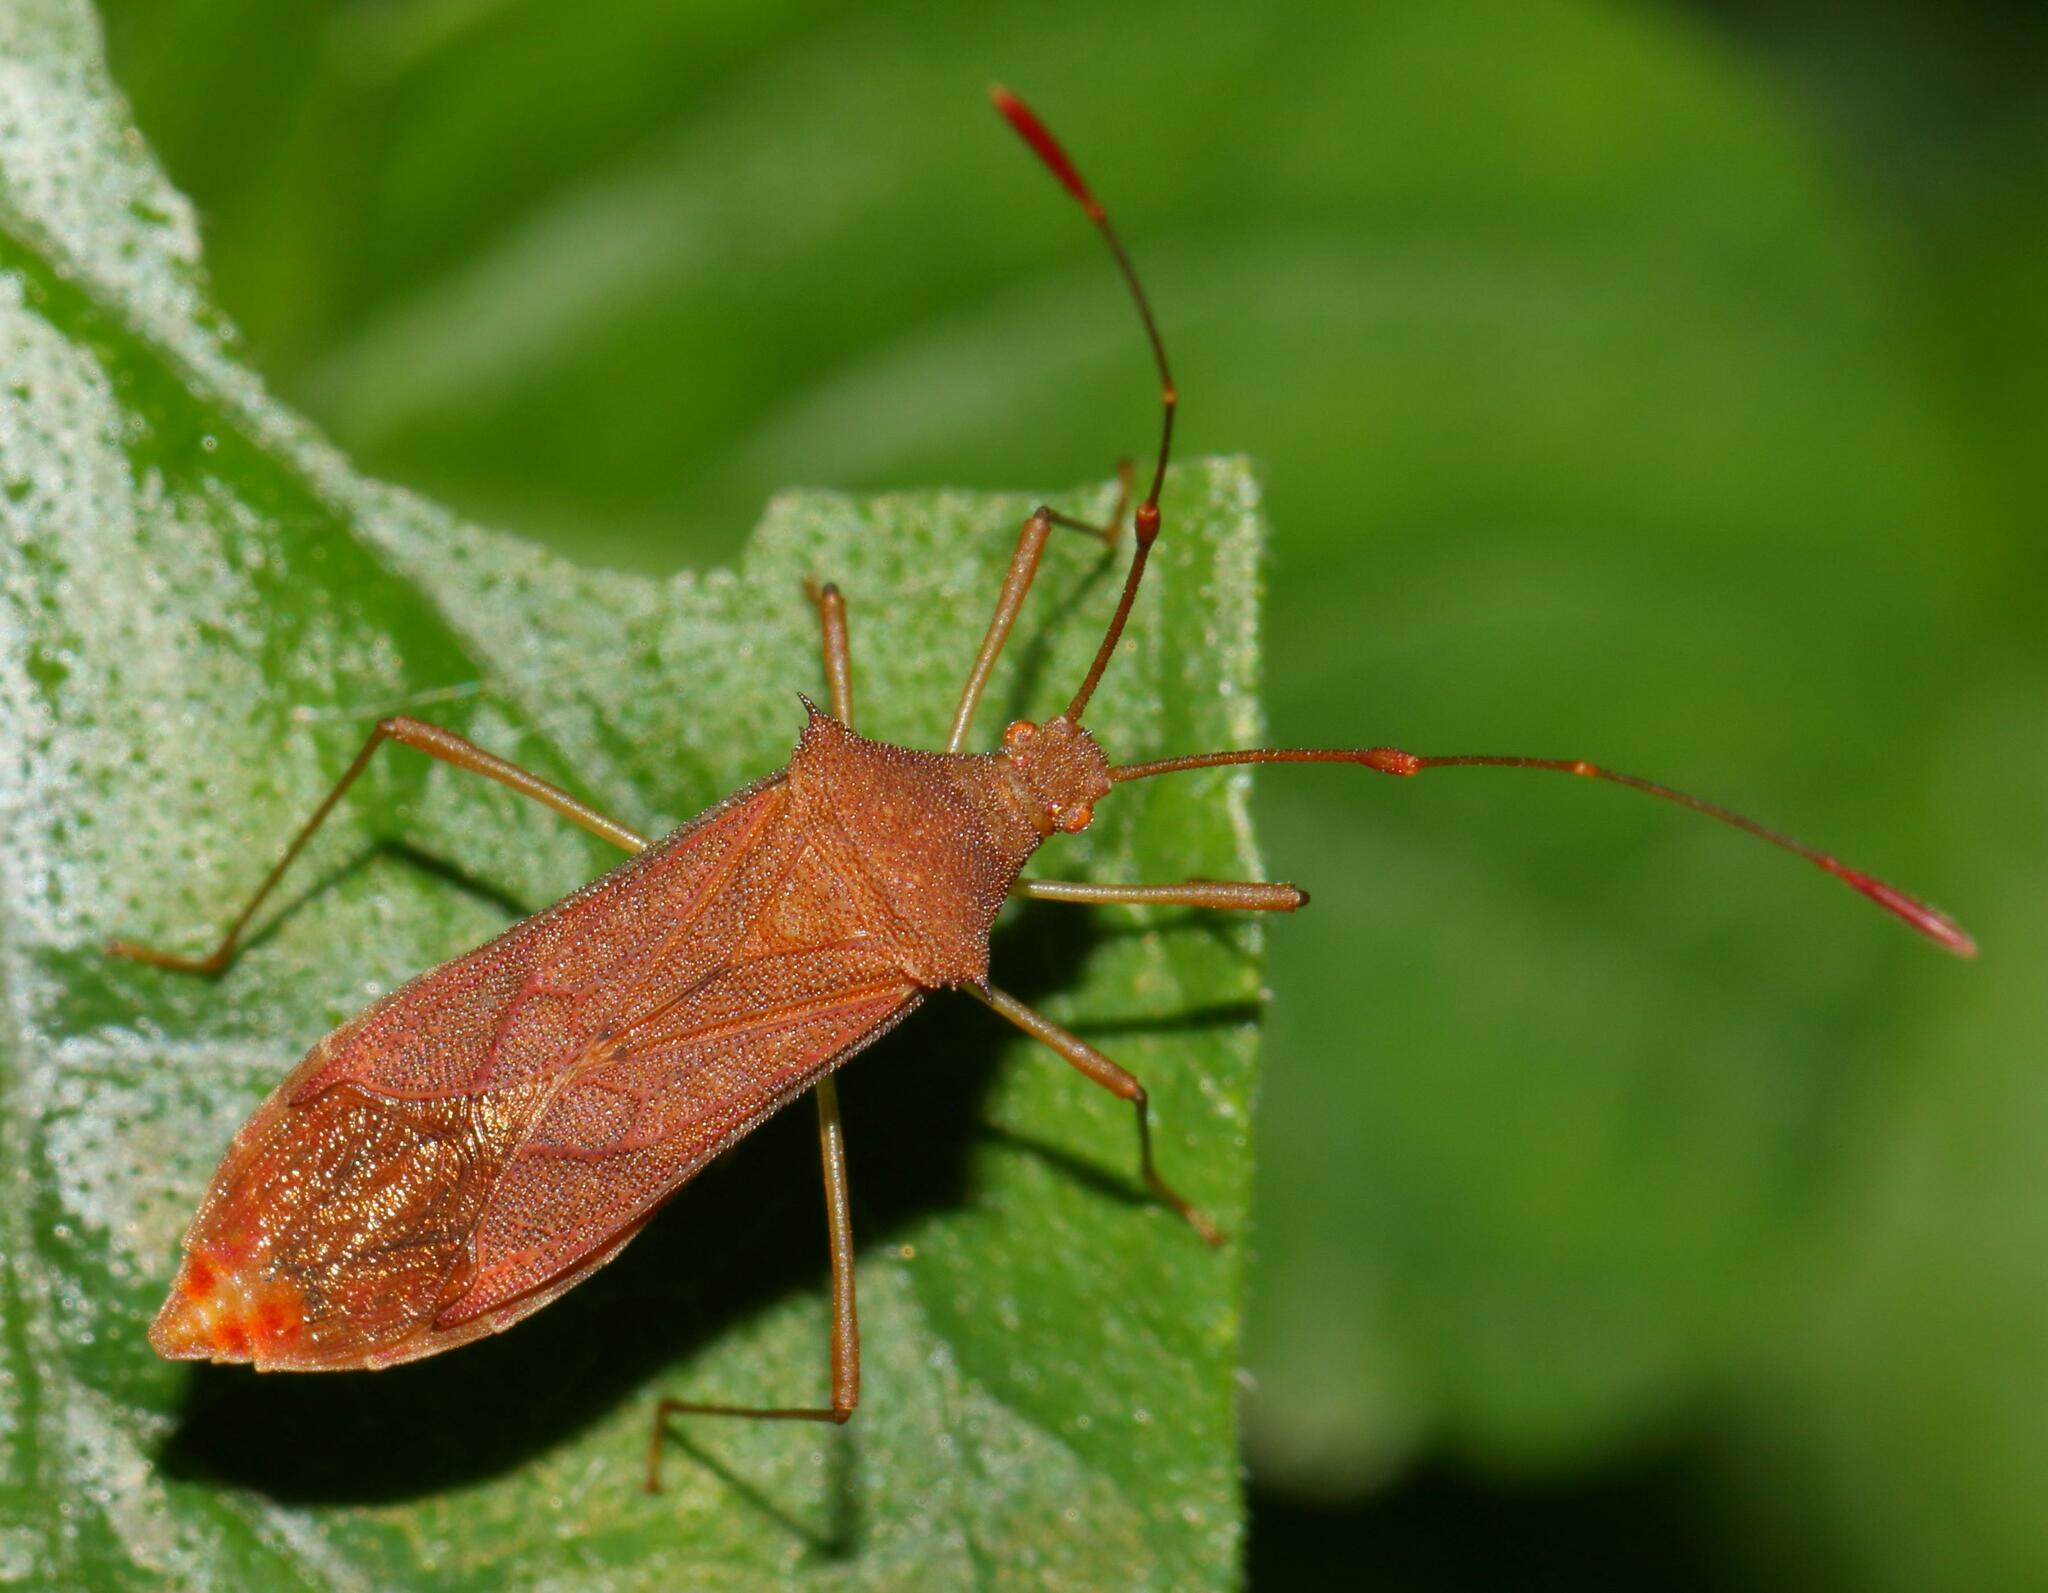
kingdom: Animalia
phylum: Arthropoda
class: Insecta
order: Hemiptera
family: Coreidae
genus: Hydara
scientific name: Hydara tenuicornis
